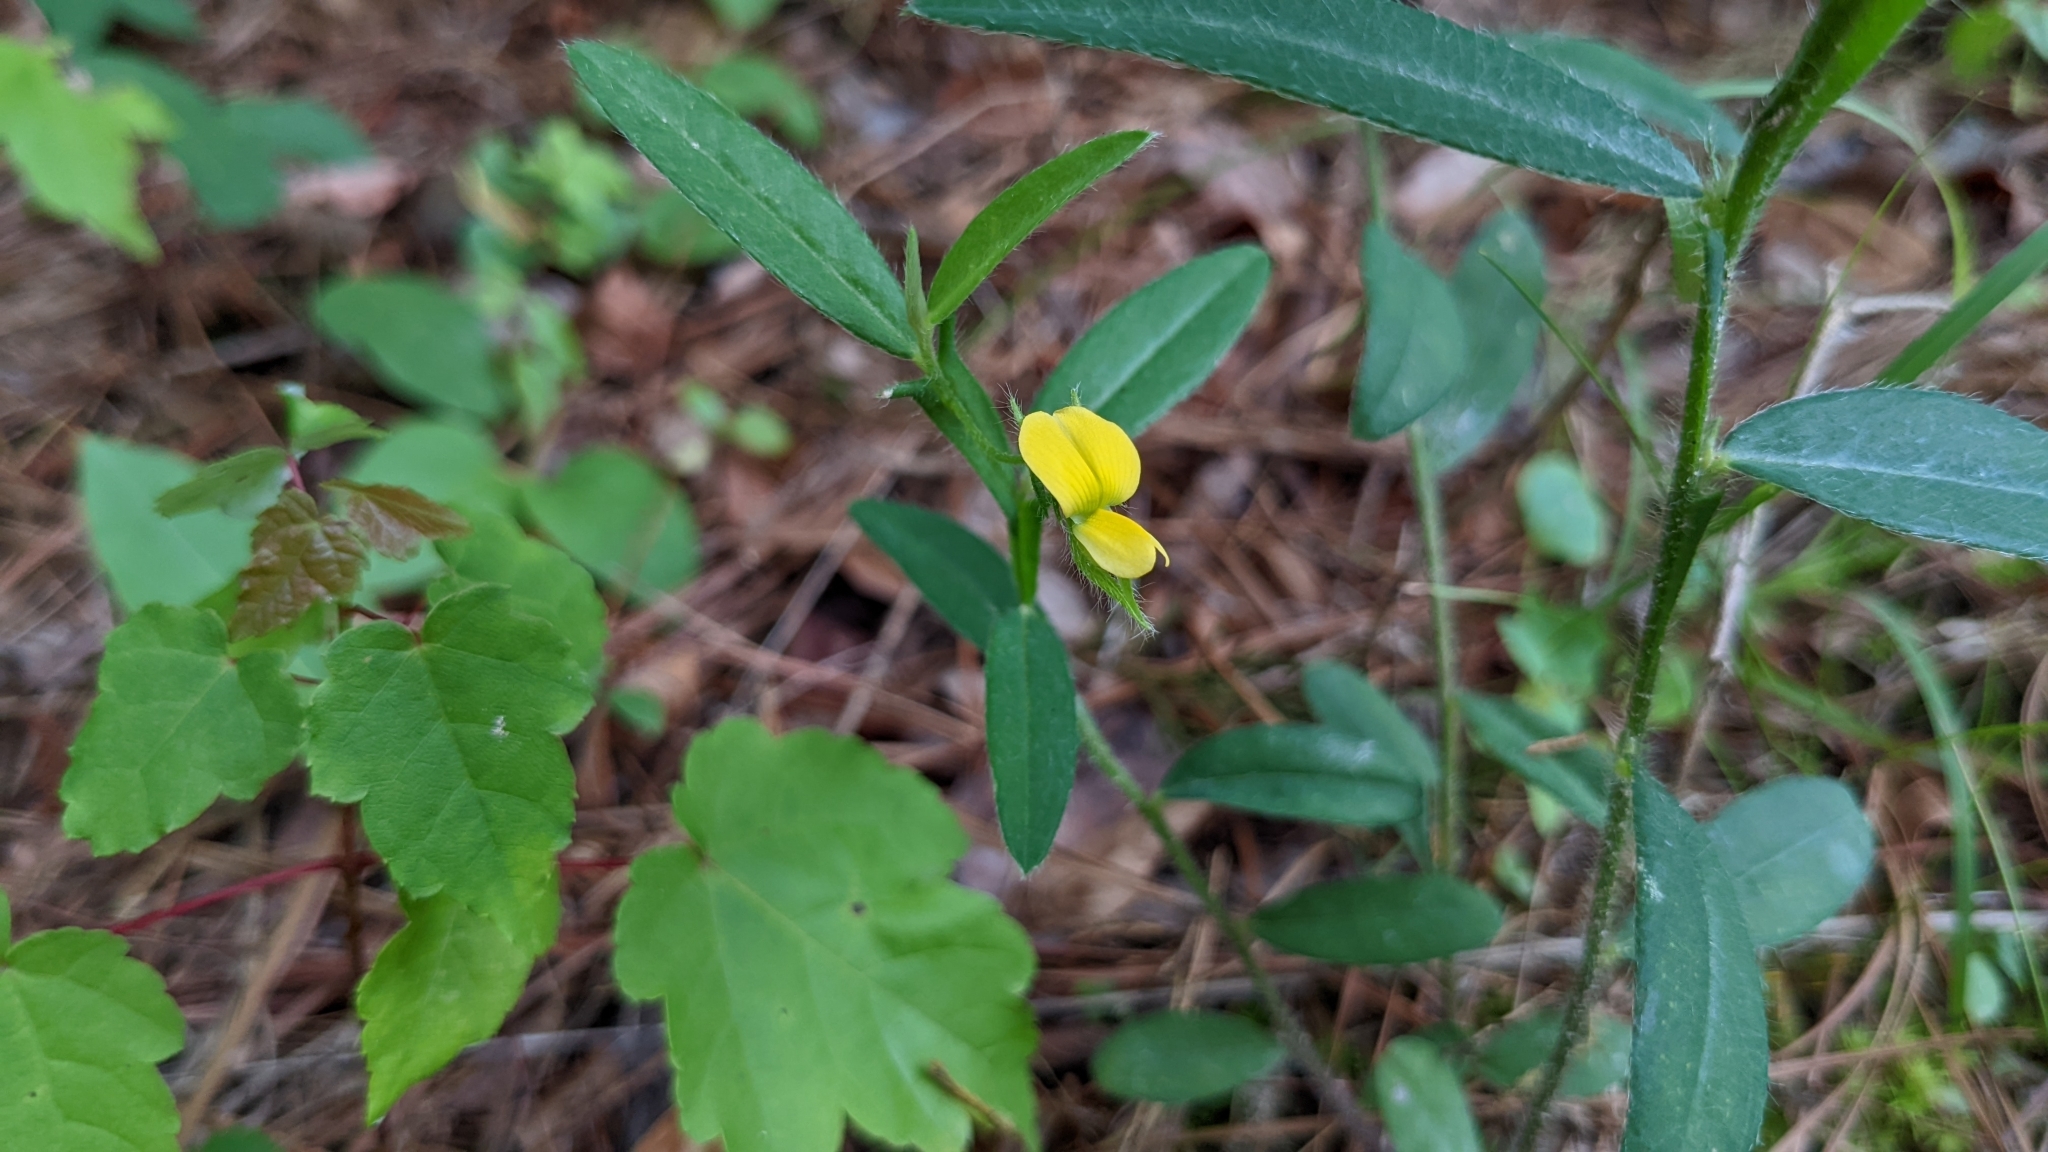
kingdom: Plantae
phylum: Tracheophyta
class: Magnoliopsida
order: Fabales
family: Fabaceae
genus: Crotalaria
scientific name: Crotalaria sagittalis
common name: Arrowhead rattlebox
